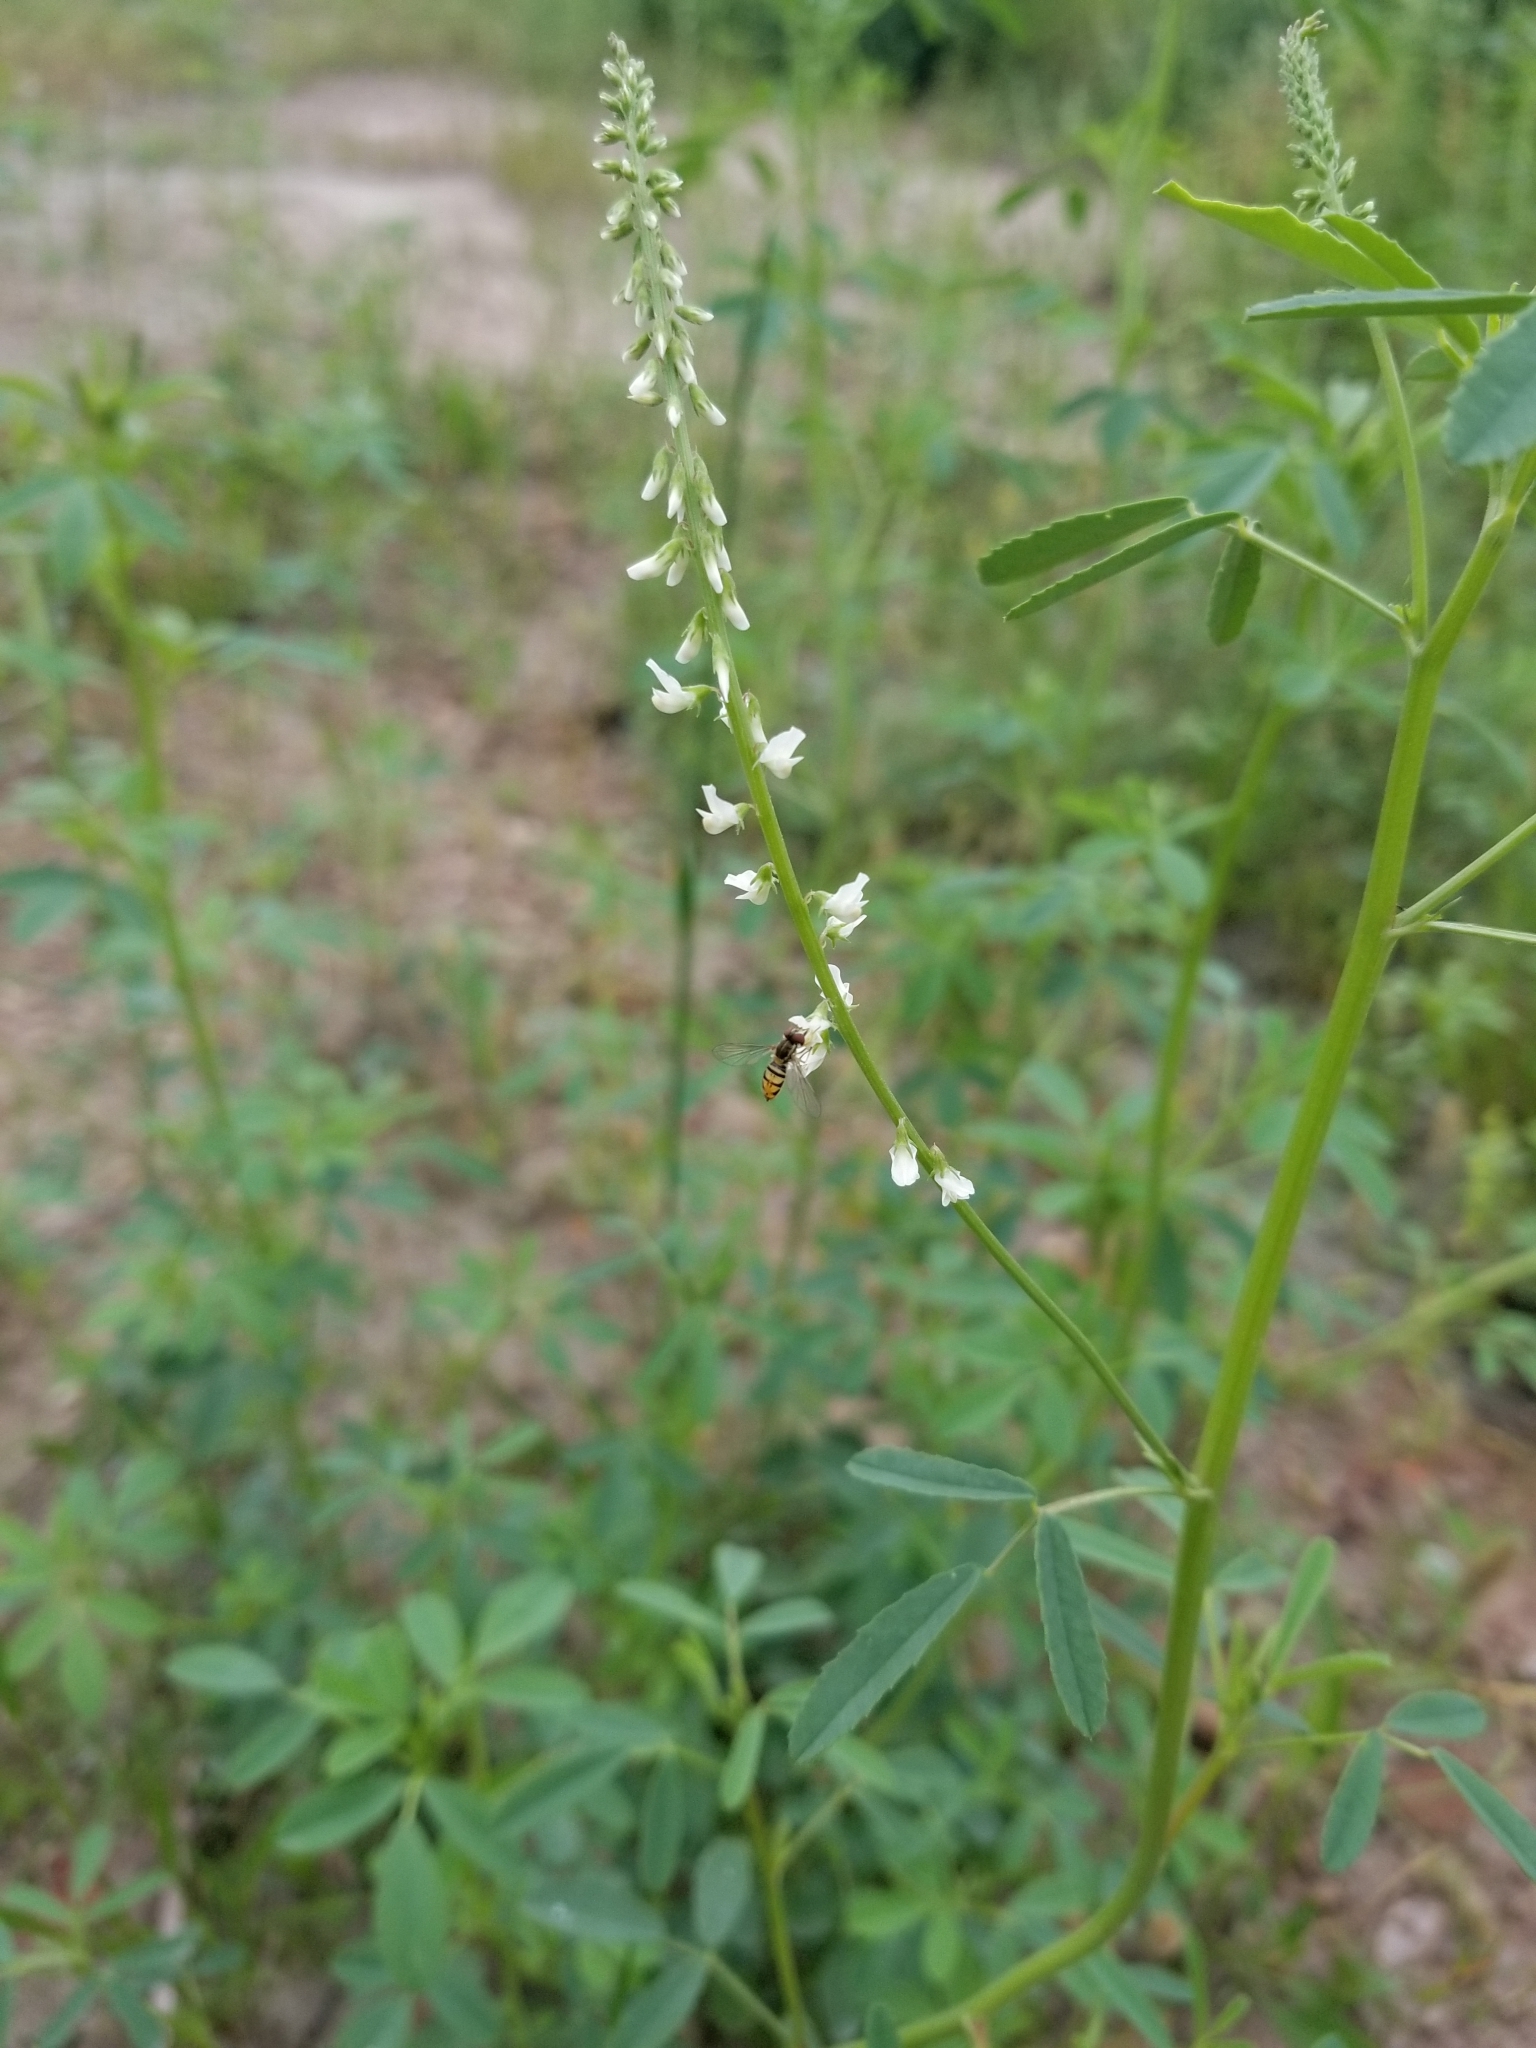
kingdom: Plantae
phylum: Tracheophyta
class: Magnoliopsida
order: Fabales
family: Fabaceae
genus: Melilotus
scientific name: Melilotus albus
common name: White melilot
